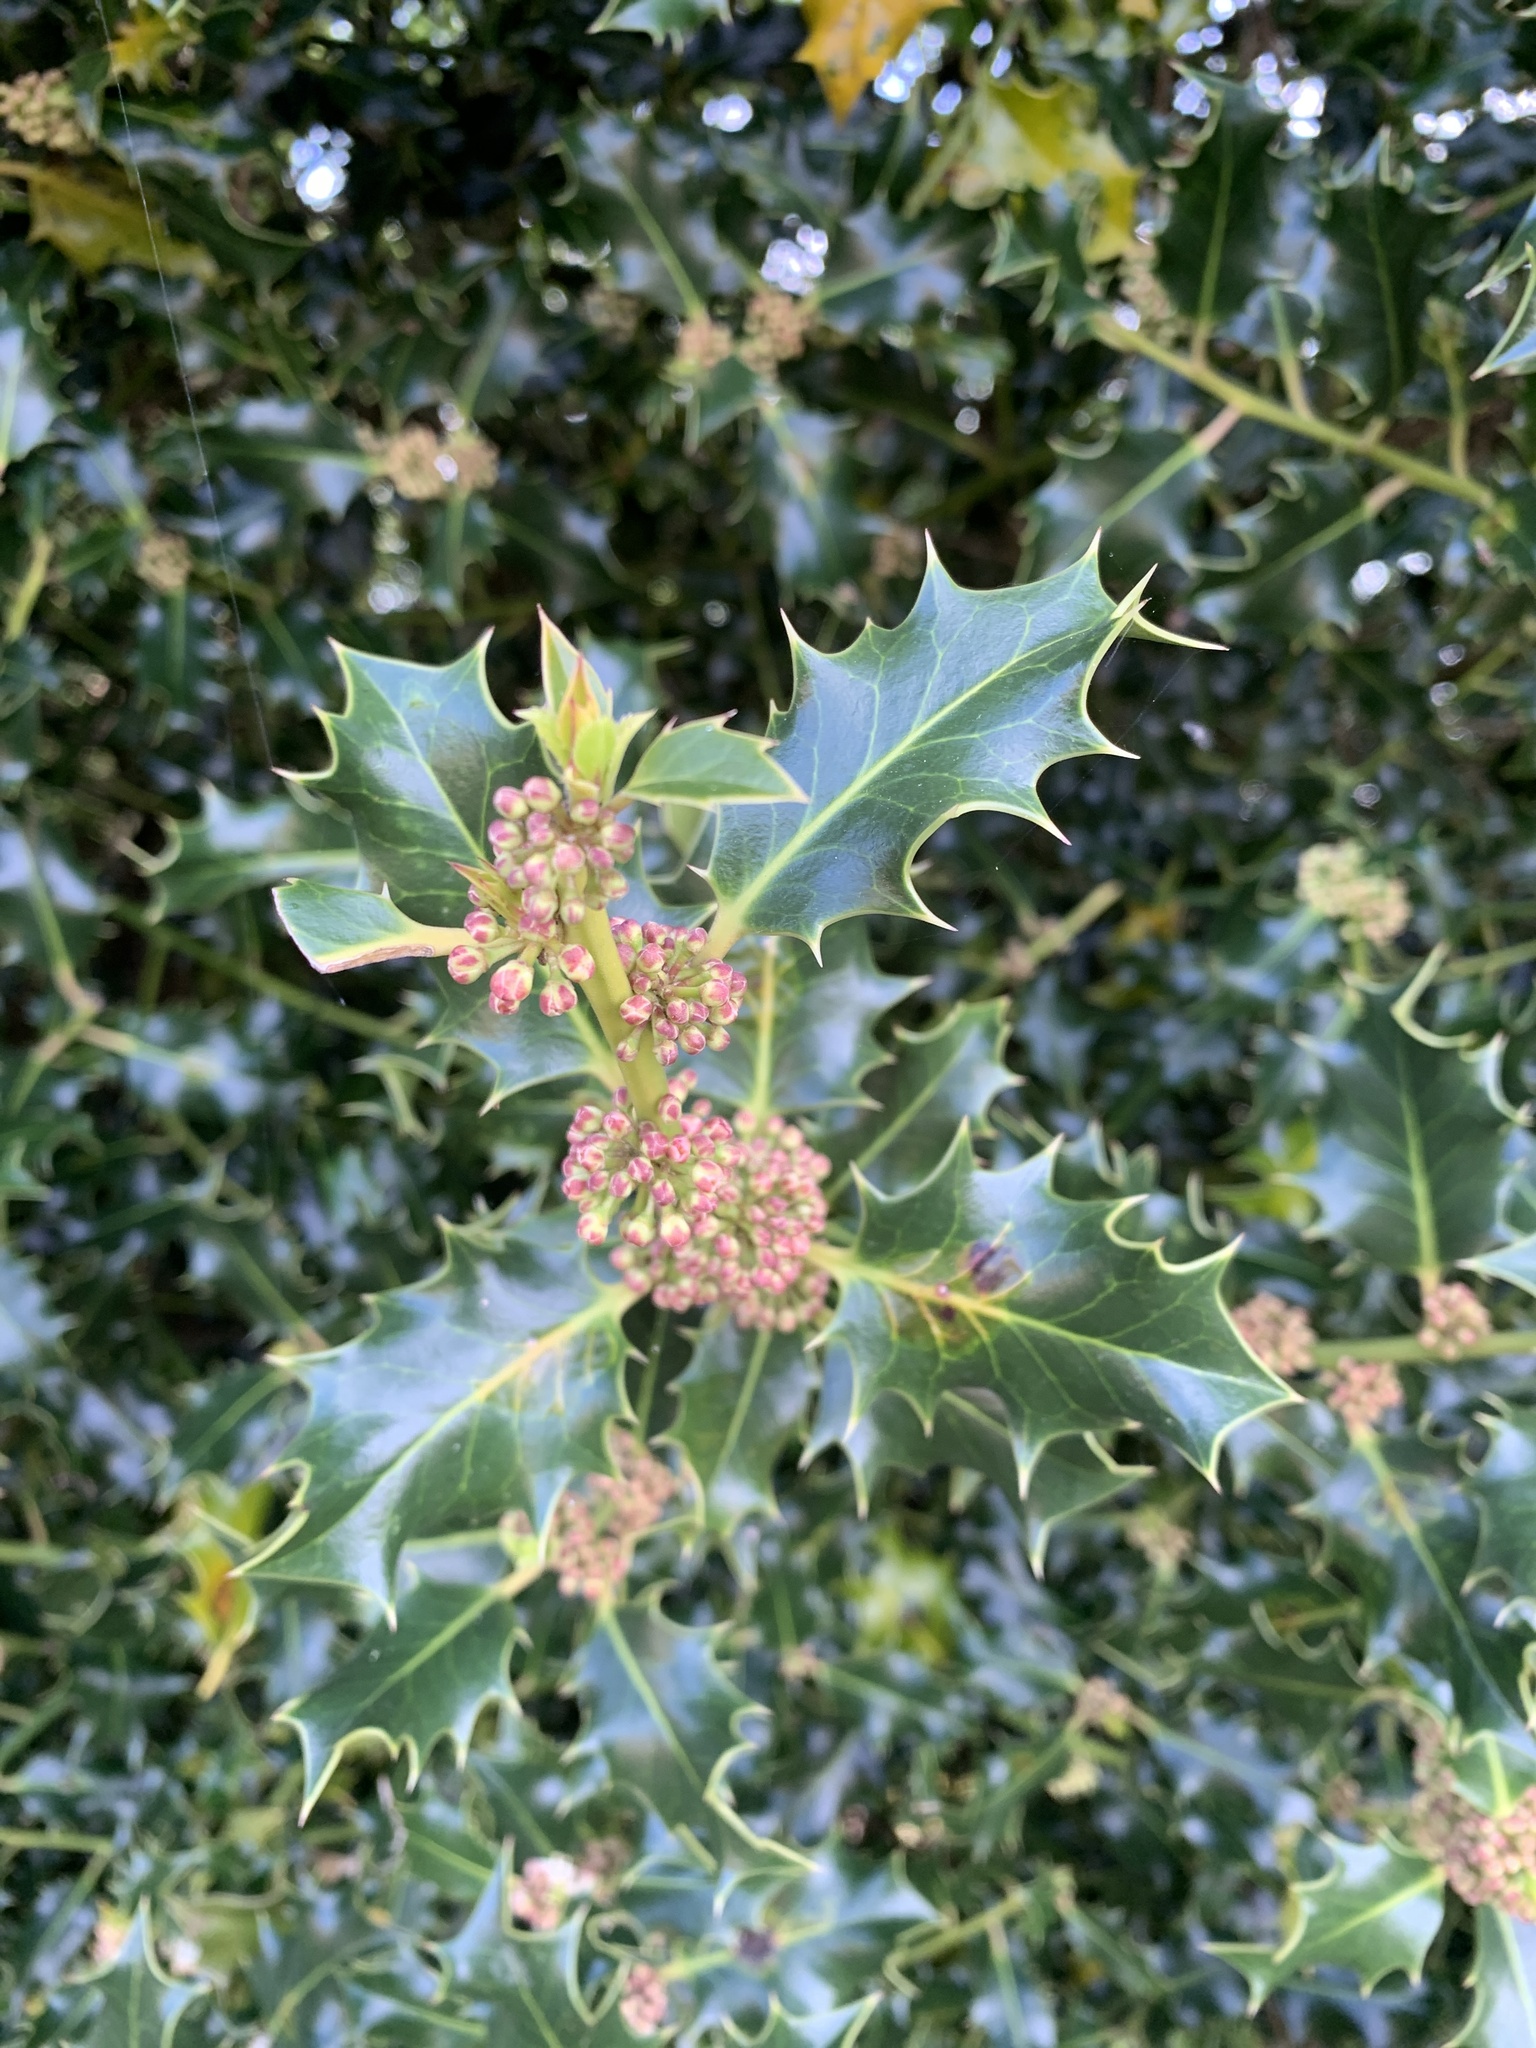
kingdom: Plantae
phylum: Tracheophyta
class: Magnoliopsida
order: Aquifoliales
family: Aquifoliaceae
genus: Ilex
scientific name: Ilex aquifolium
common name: English holly
